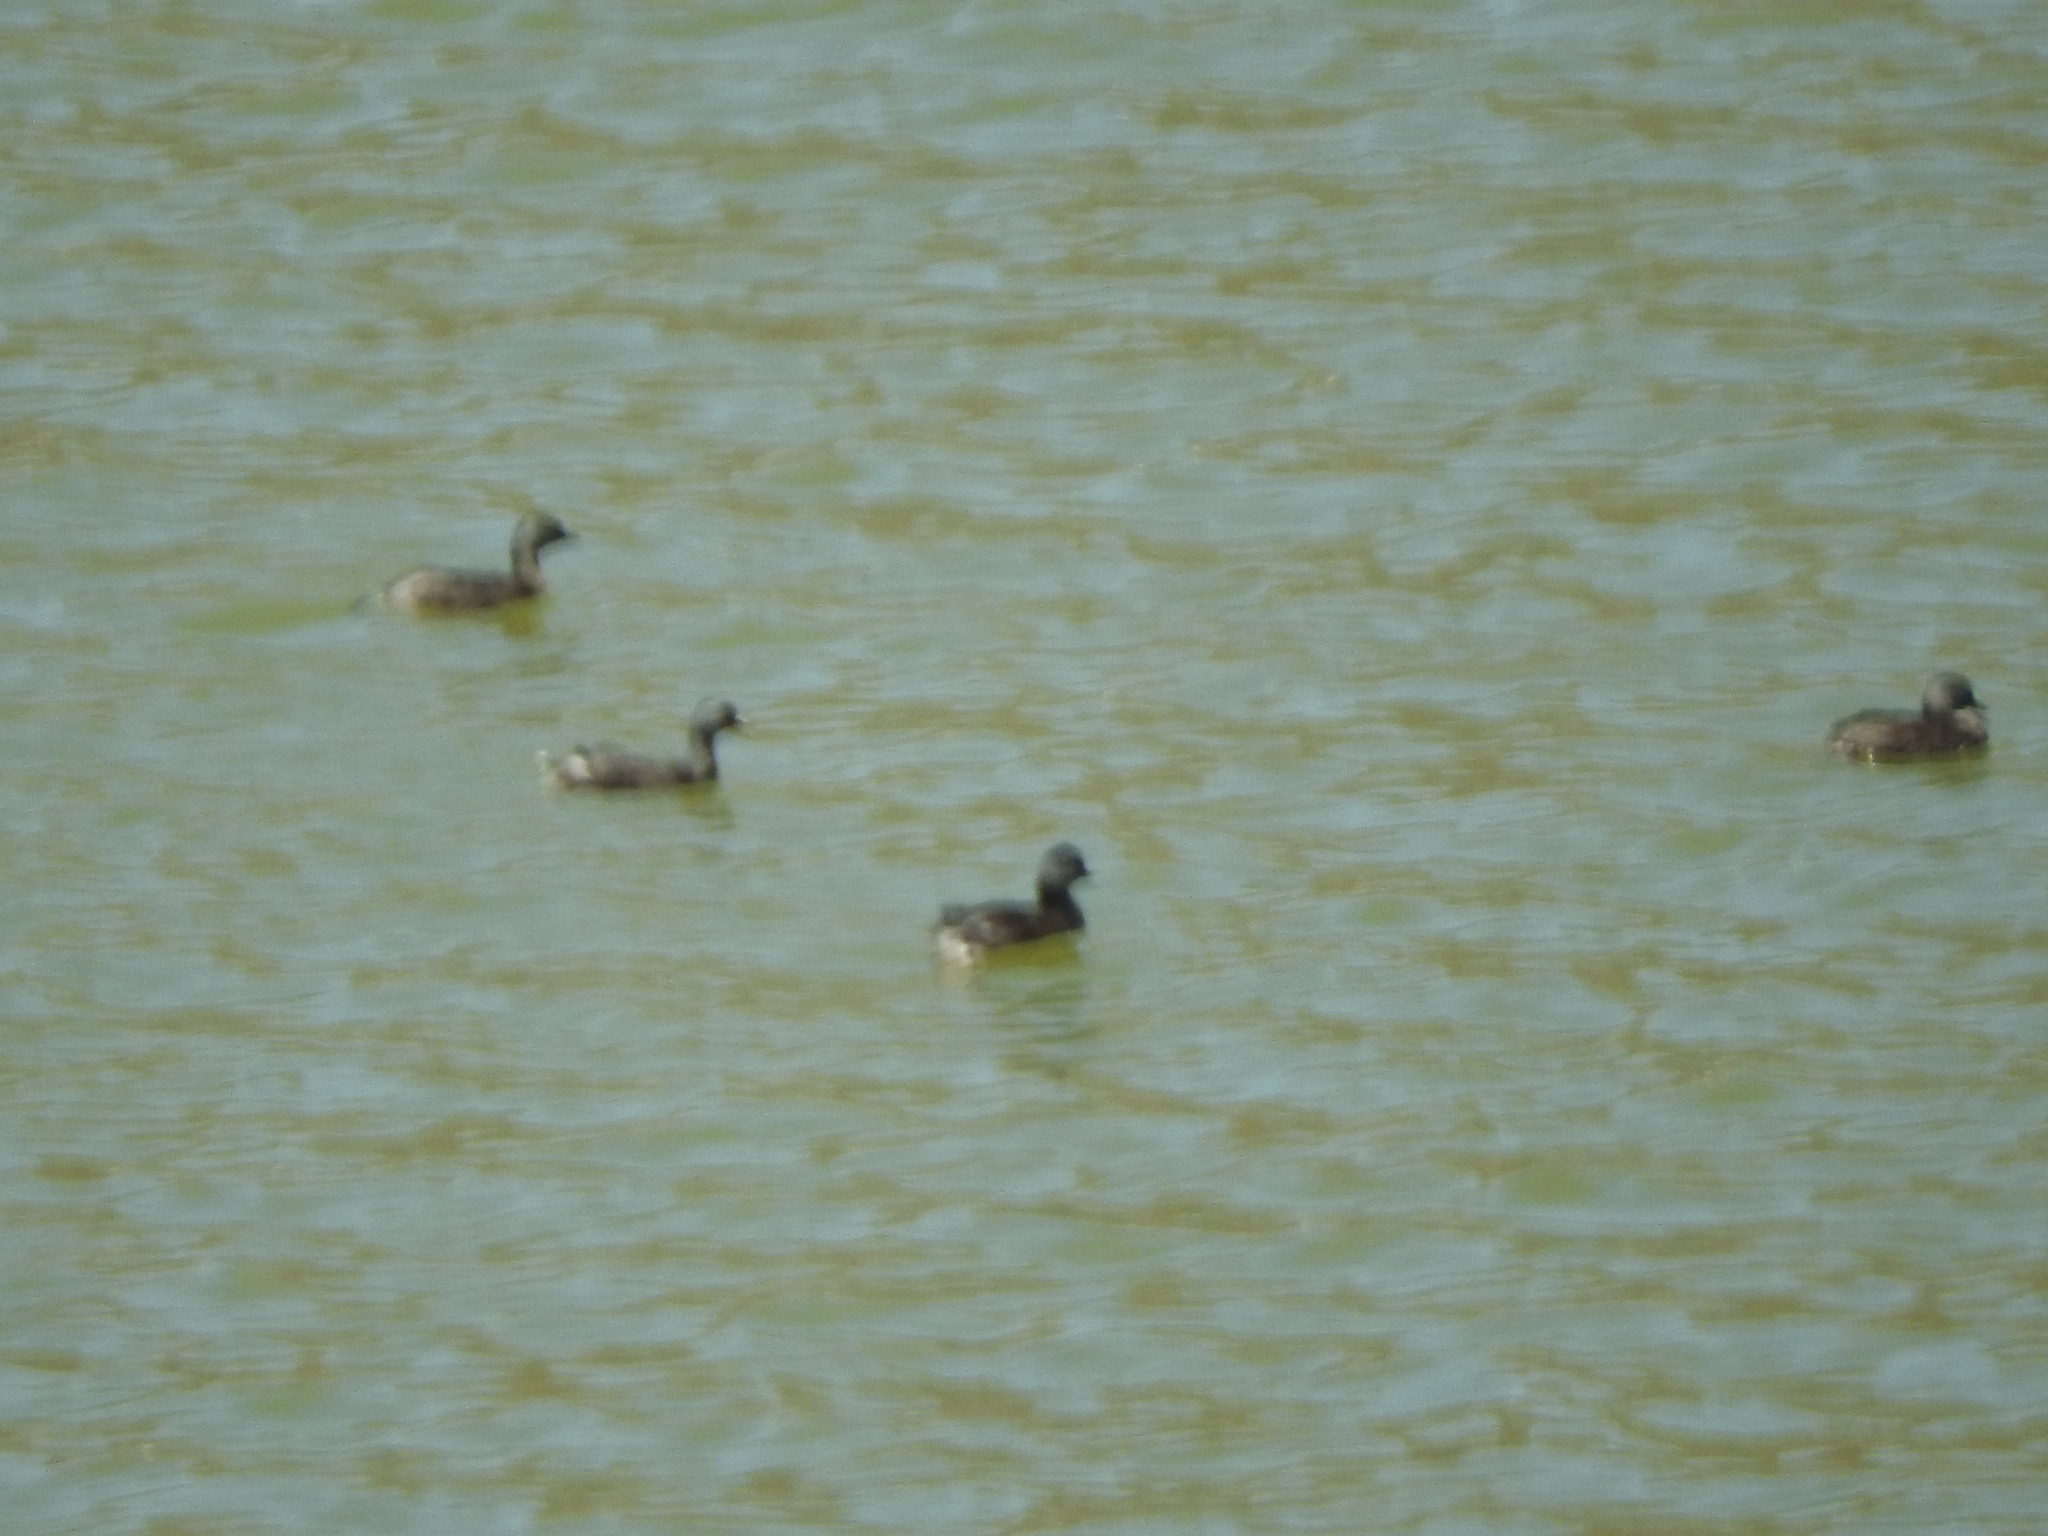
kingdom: Animalia
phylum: Chordata
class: Aves
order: Podicipediformes
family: Podicipedidae
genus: Tachybaptus
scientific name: Tachybaptus dominicus
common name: Least grebe
